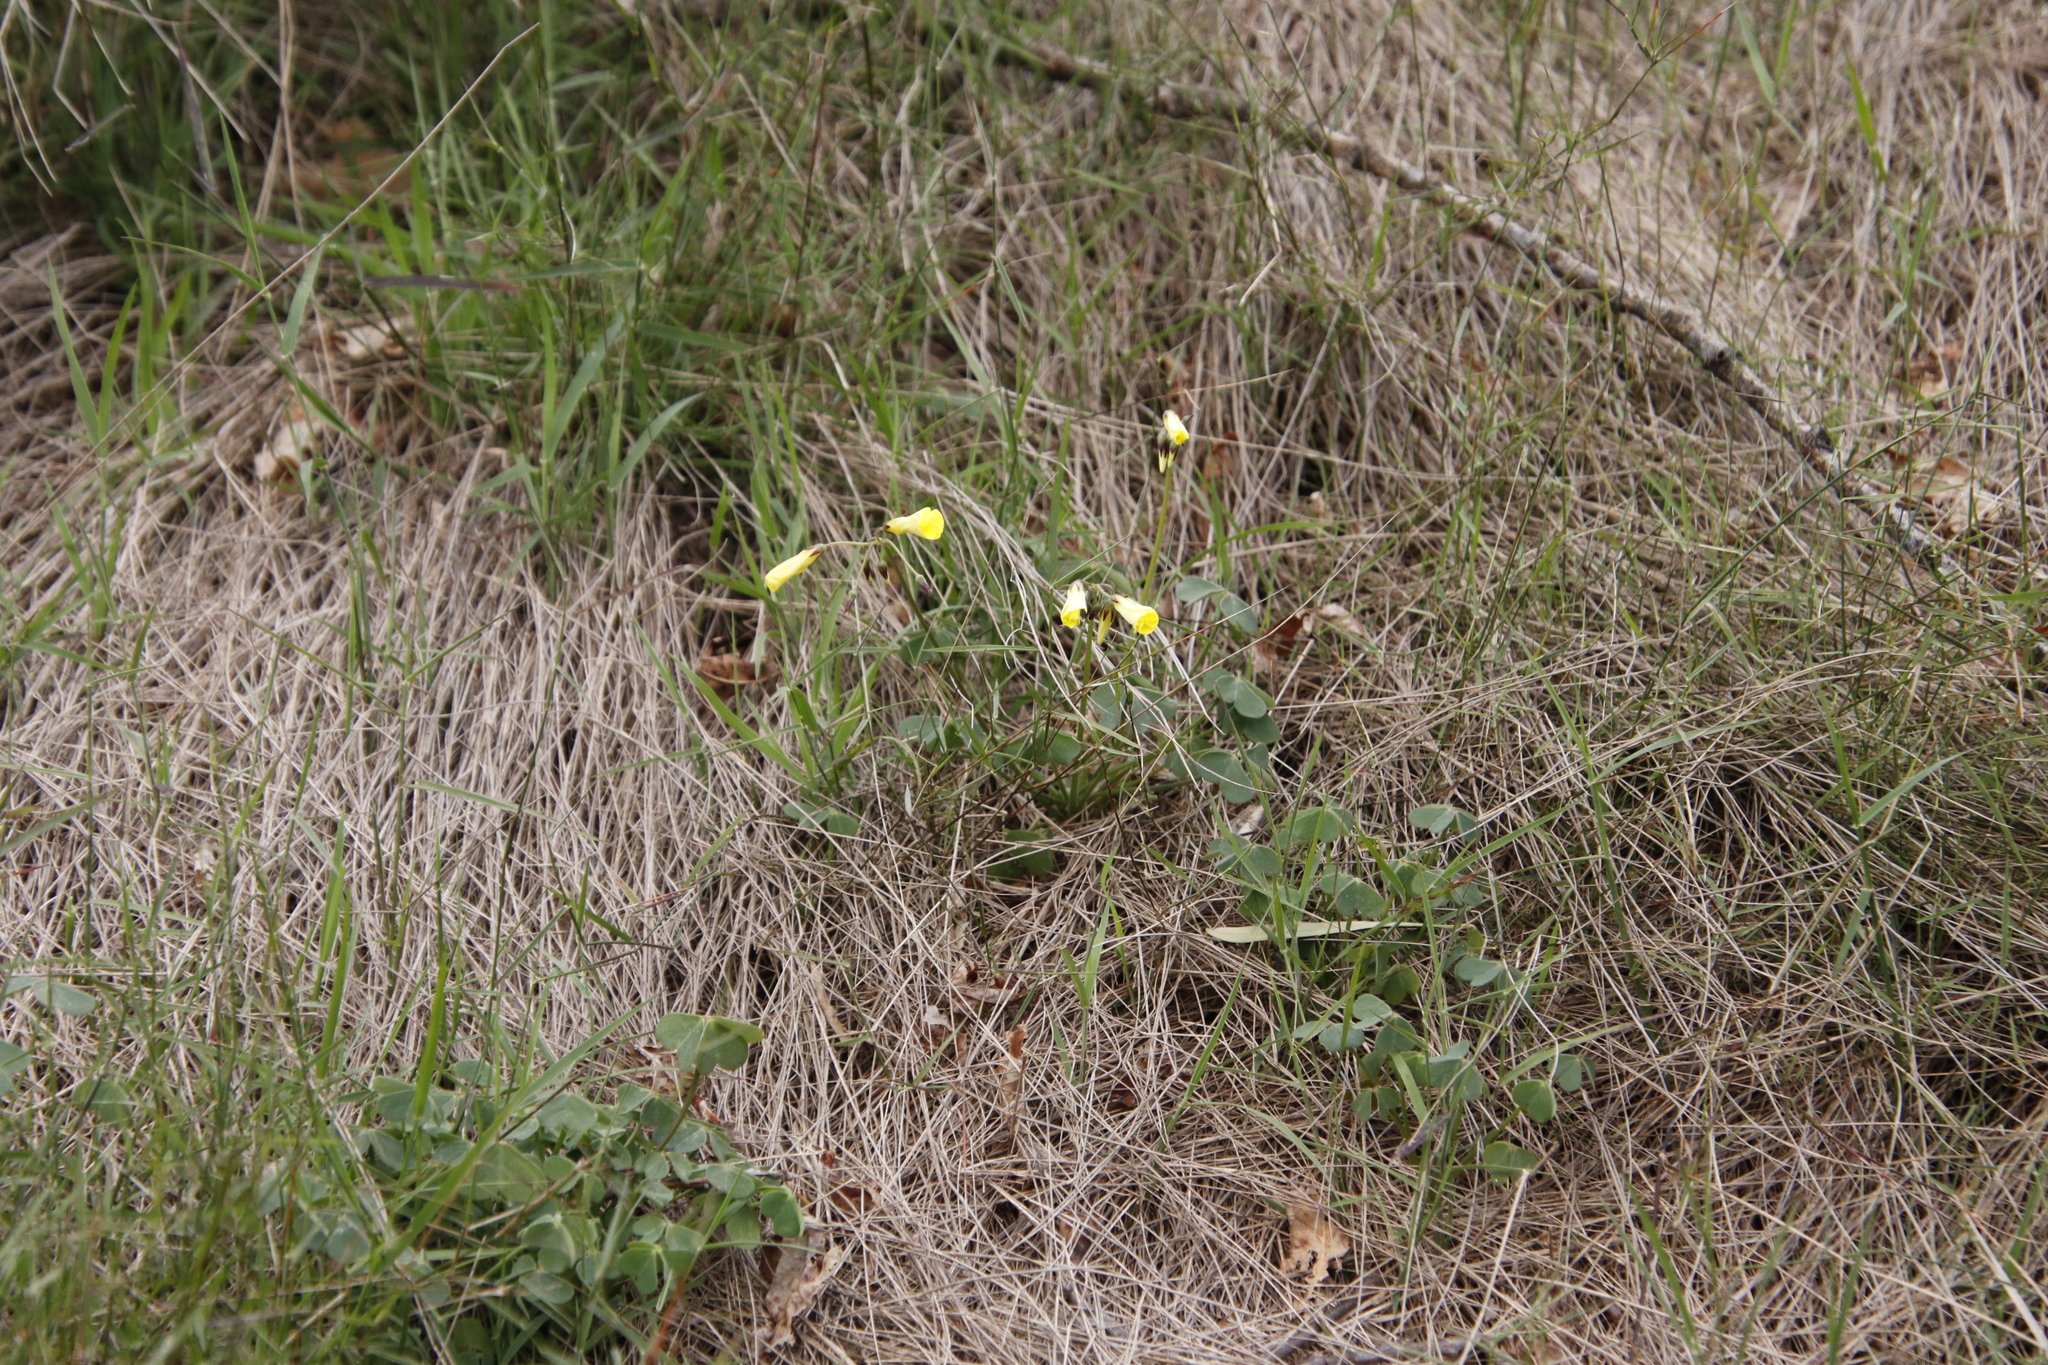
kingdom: Plantae
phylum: Tracheophyta
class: Magnoliopsida
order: Oxalidales
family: Oxalidaceae
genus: Oxalis
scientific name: Oxalis pes-caprae
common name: Bermuda-buttercup
